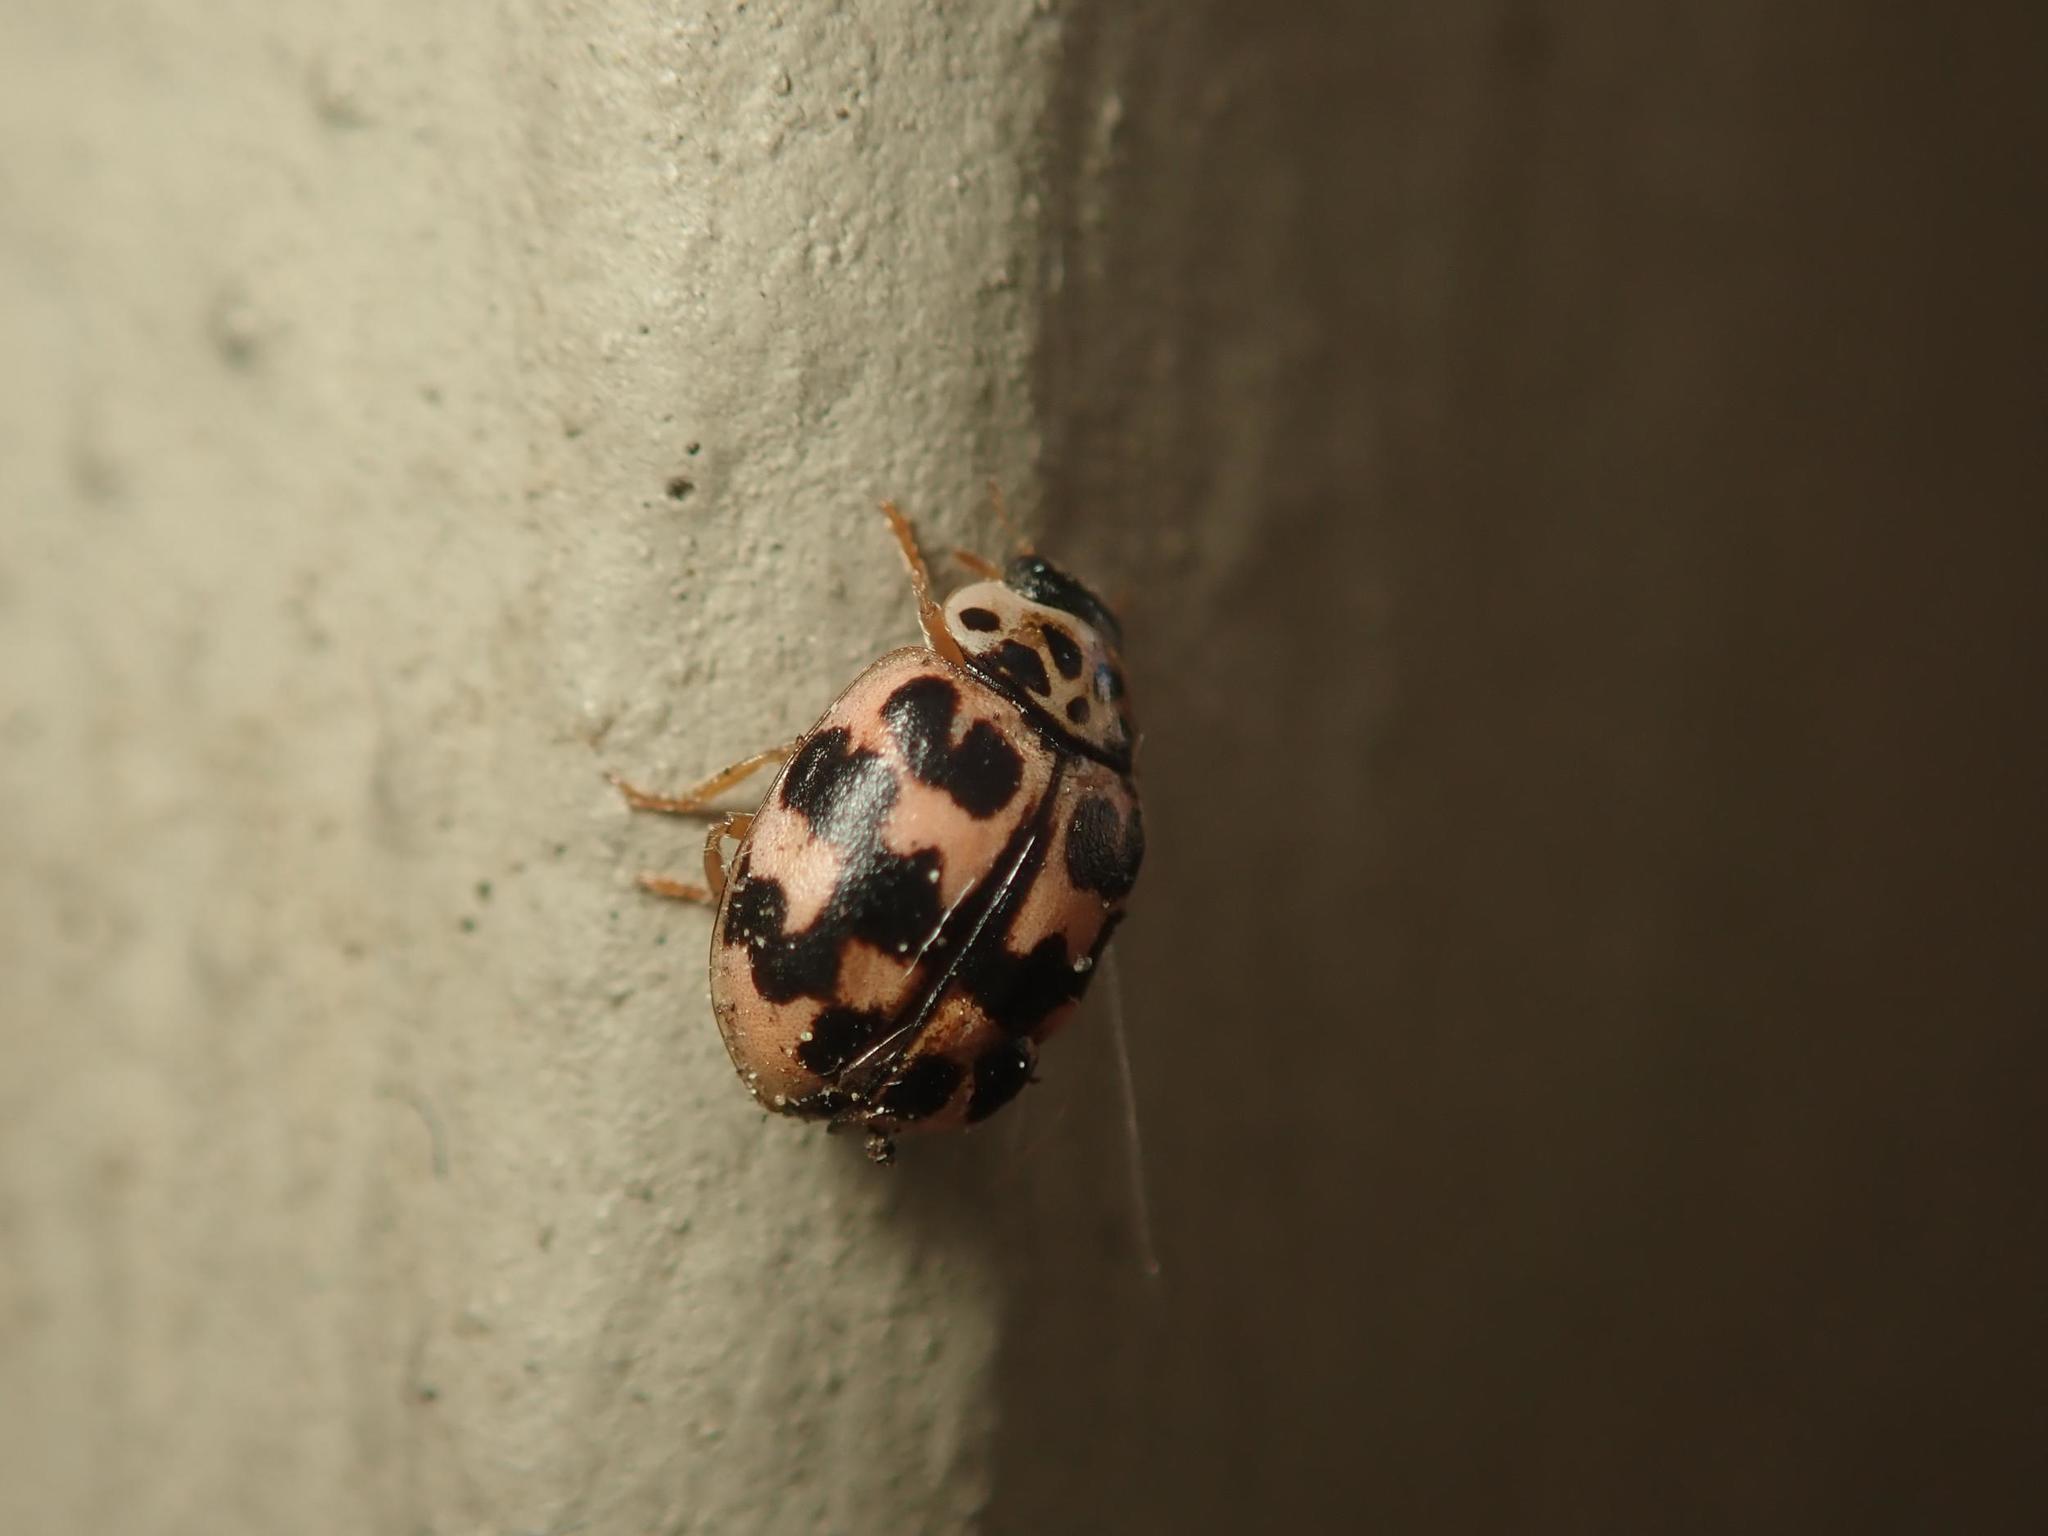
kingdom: Animalia
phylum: Arthropoda
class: Insecta
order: Coleoptera
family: Coccinellidae
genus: Oenopia
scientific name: Oenopia conglobata
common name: Ladybird beetle
